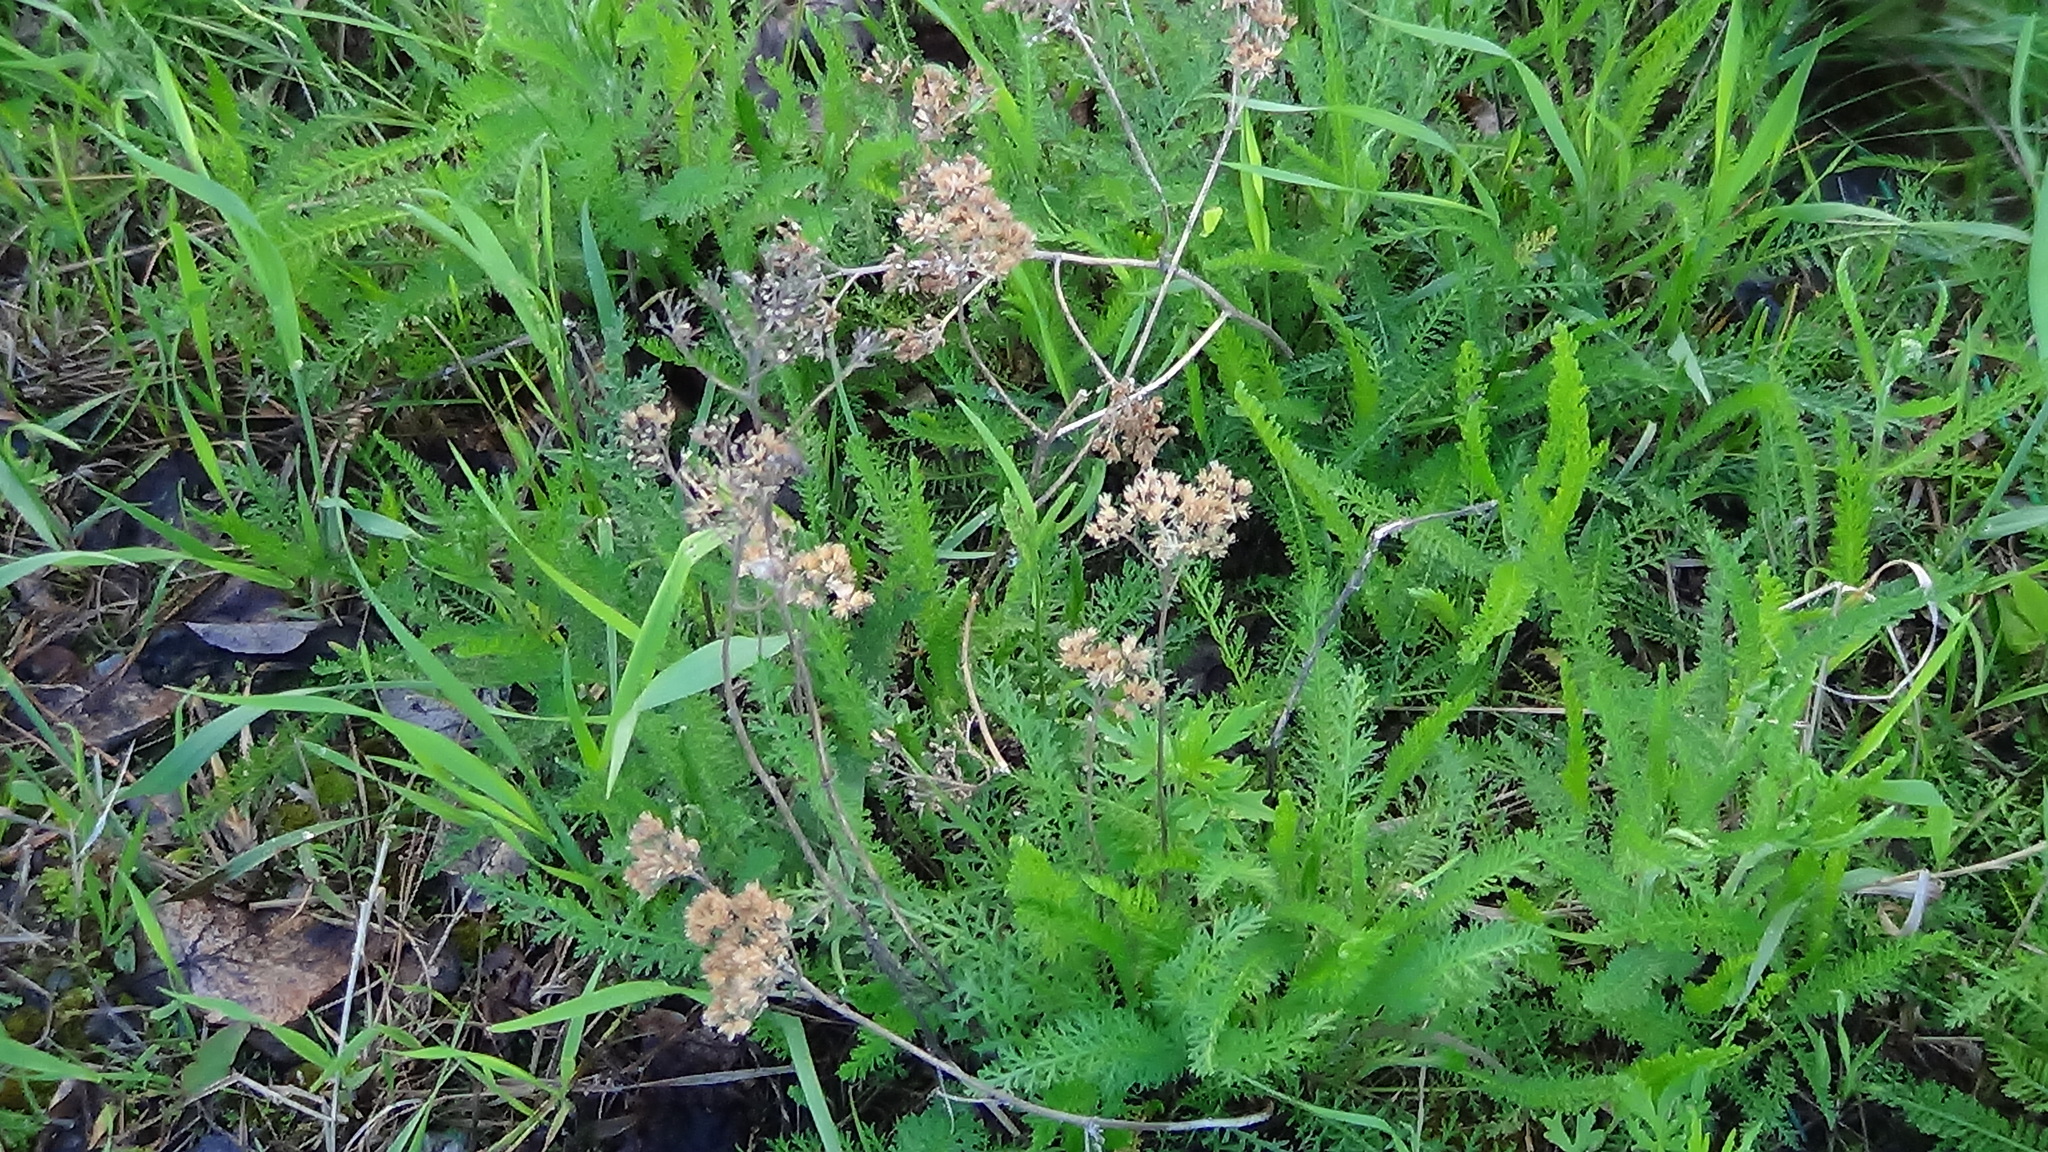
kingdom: Plantae
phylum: Tracheophyta
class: Magnoliopsida
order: Asterales
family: Asteraceae
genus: Achillea
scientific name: Achillea millefolium
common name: Yarrow
